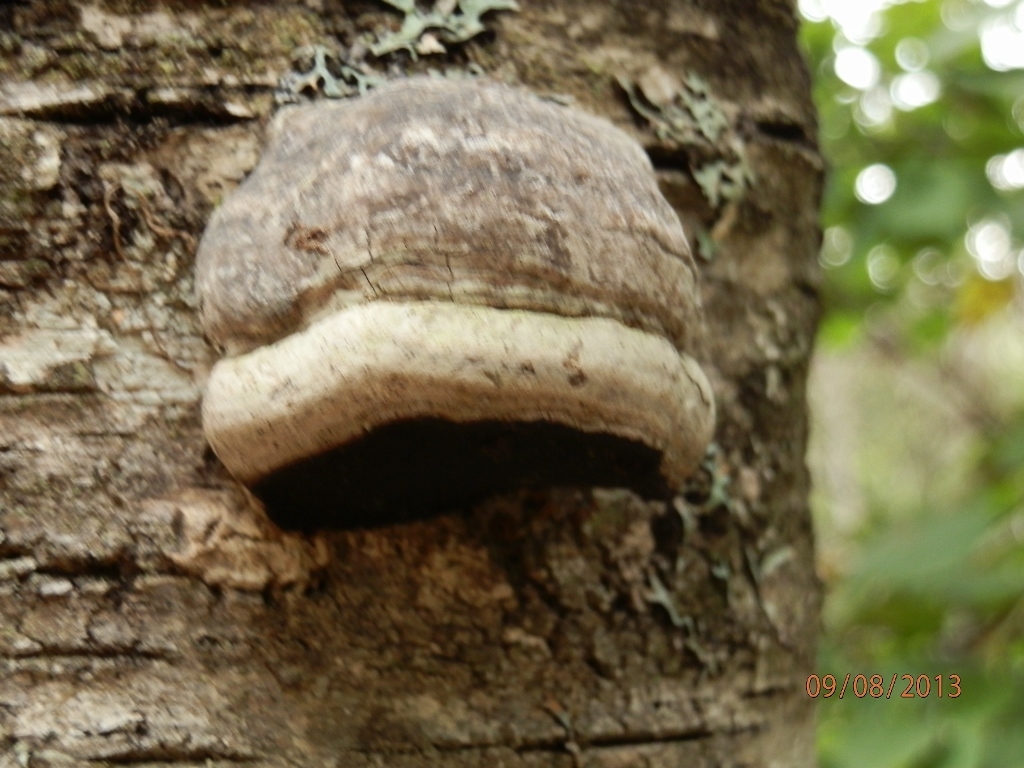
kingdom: Fungi
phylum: Basidiomycota
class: Agaricomycetes
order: Polyporales
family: Polyporaceae
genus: Fomes
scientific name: Fomes fomentarius
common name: Hoof fungus
